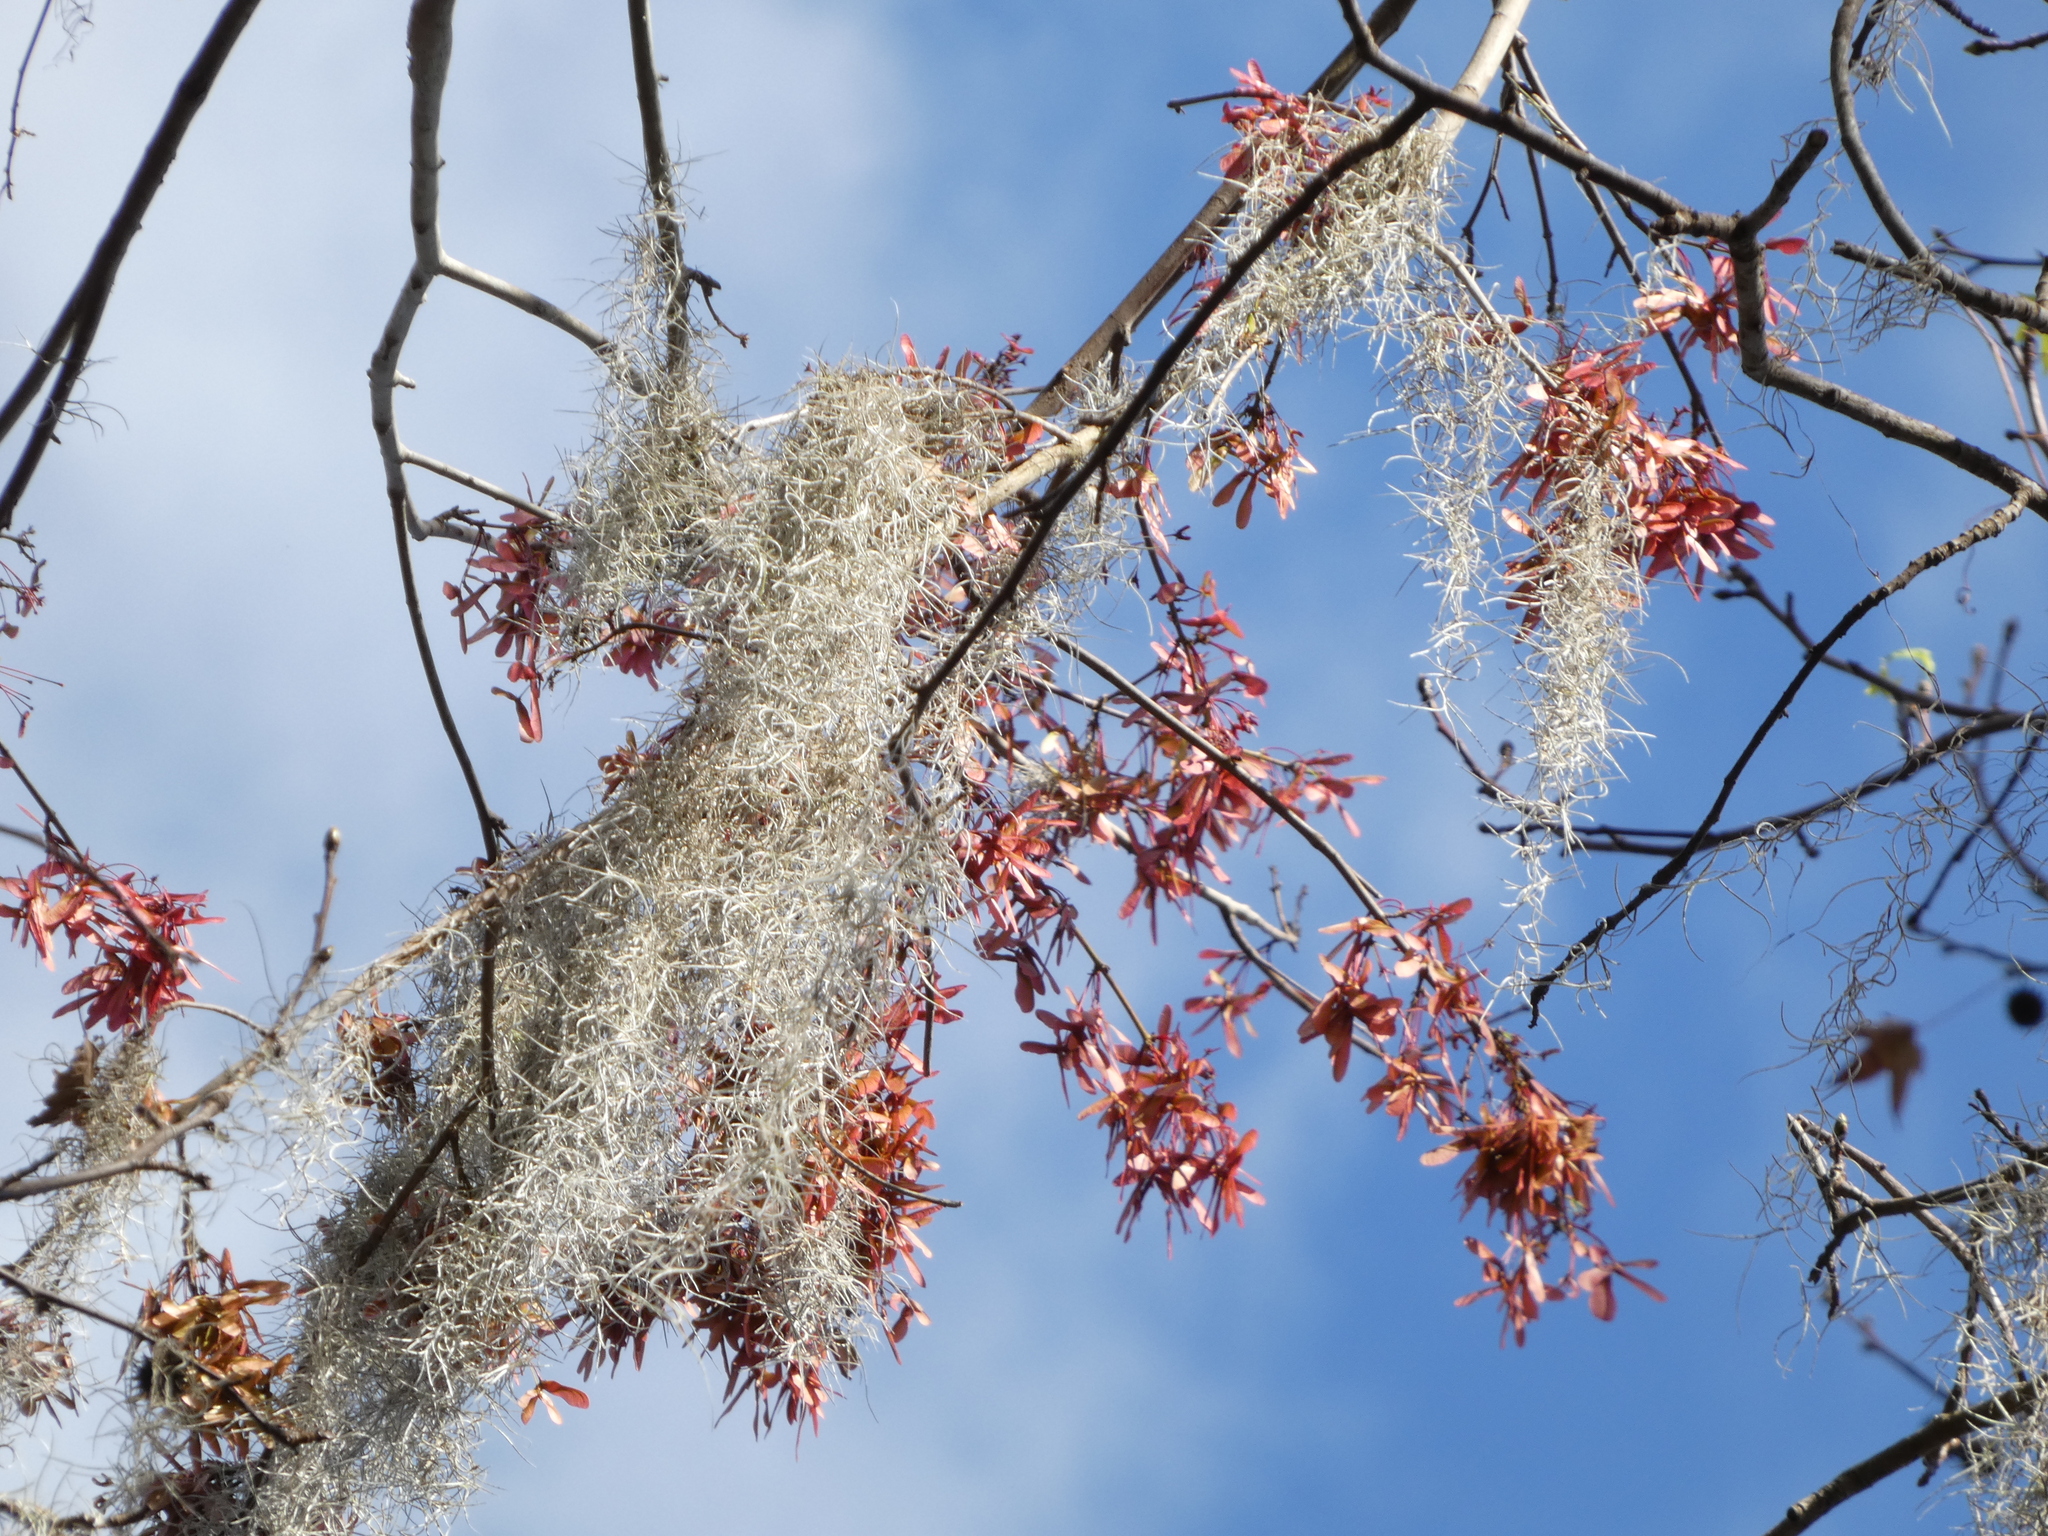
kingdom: Plantae
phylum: Tracheophyta
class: Magnoliopsida
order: Sapindales
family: Sapindaceae
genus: Acer
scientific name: Acer rubrum
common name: Red maple
